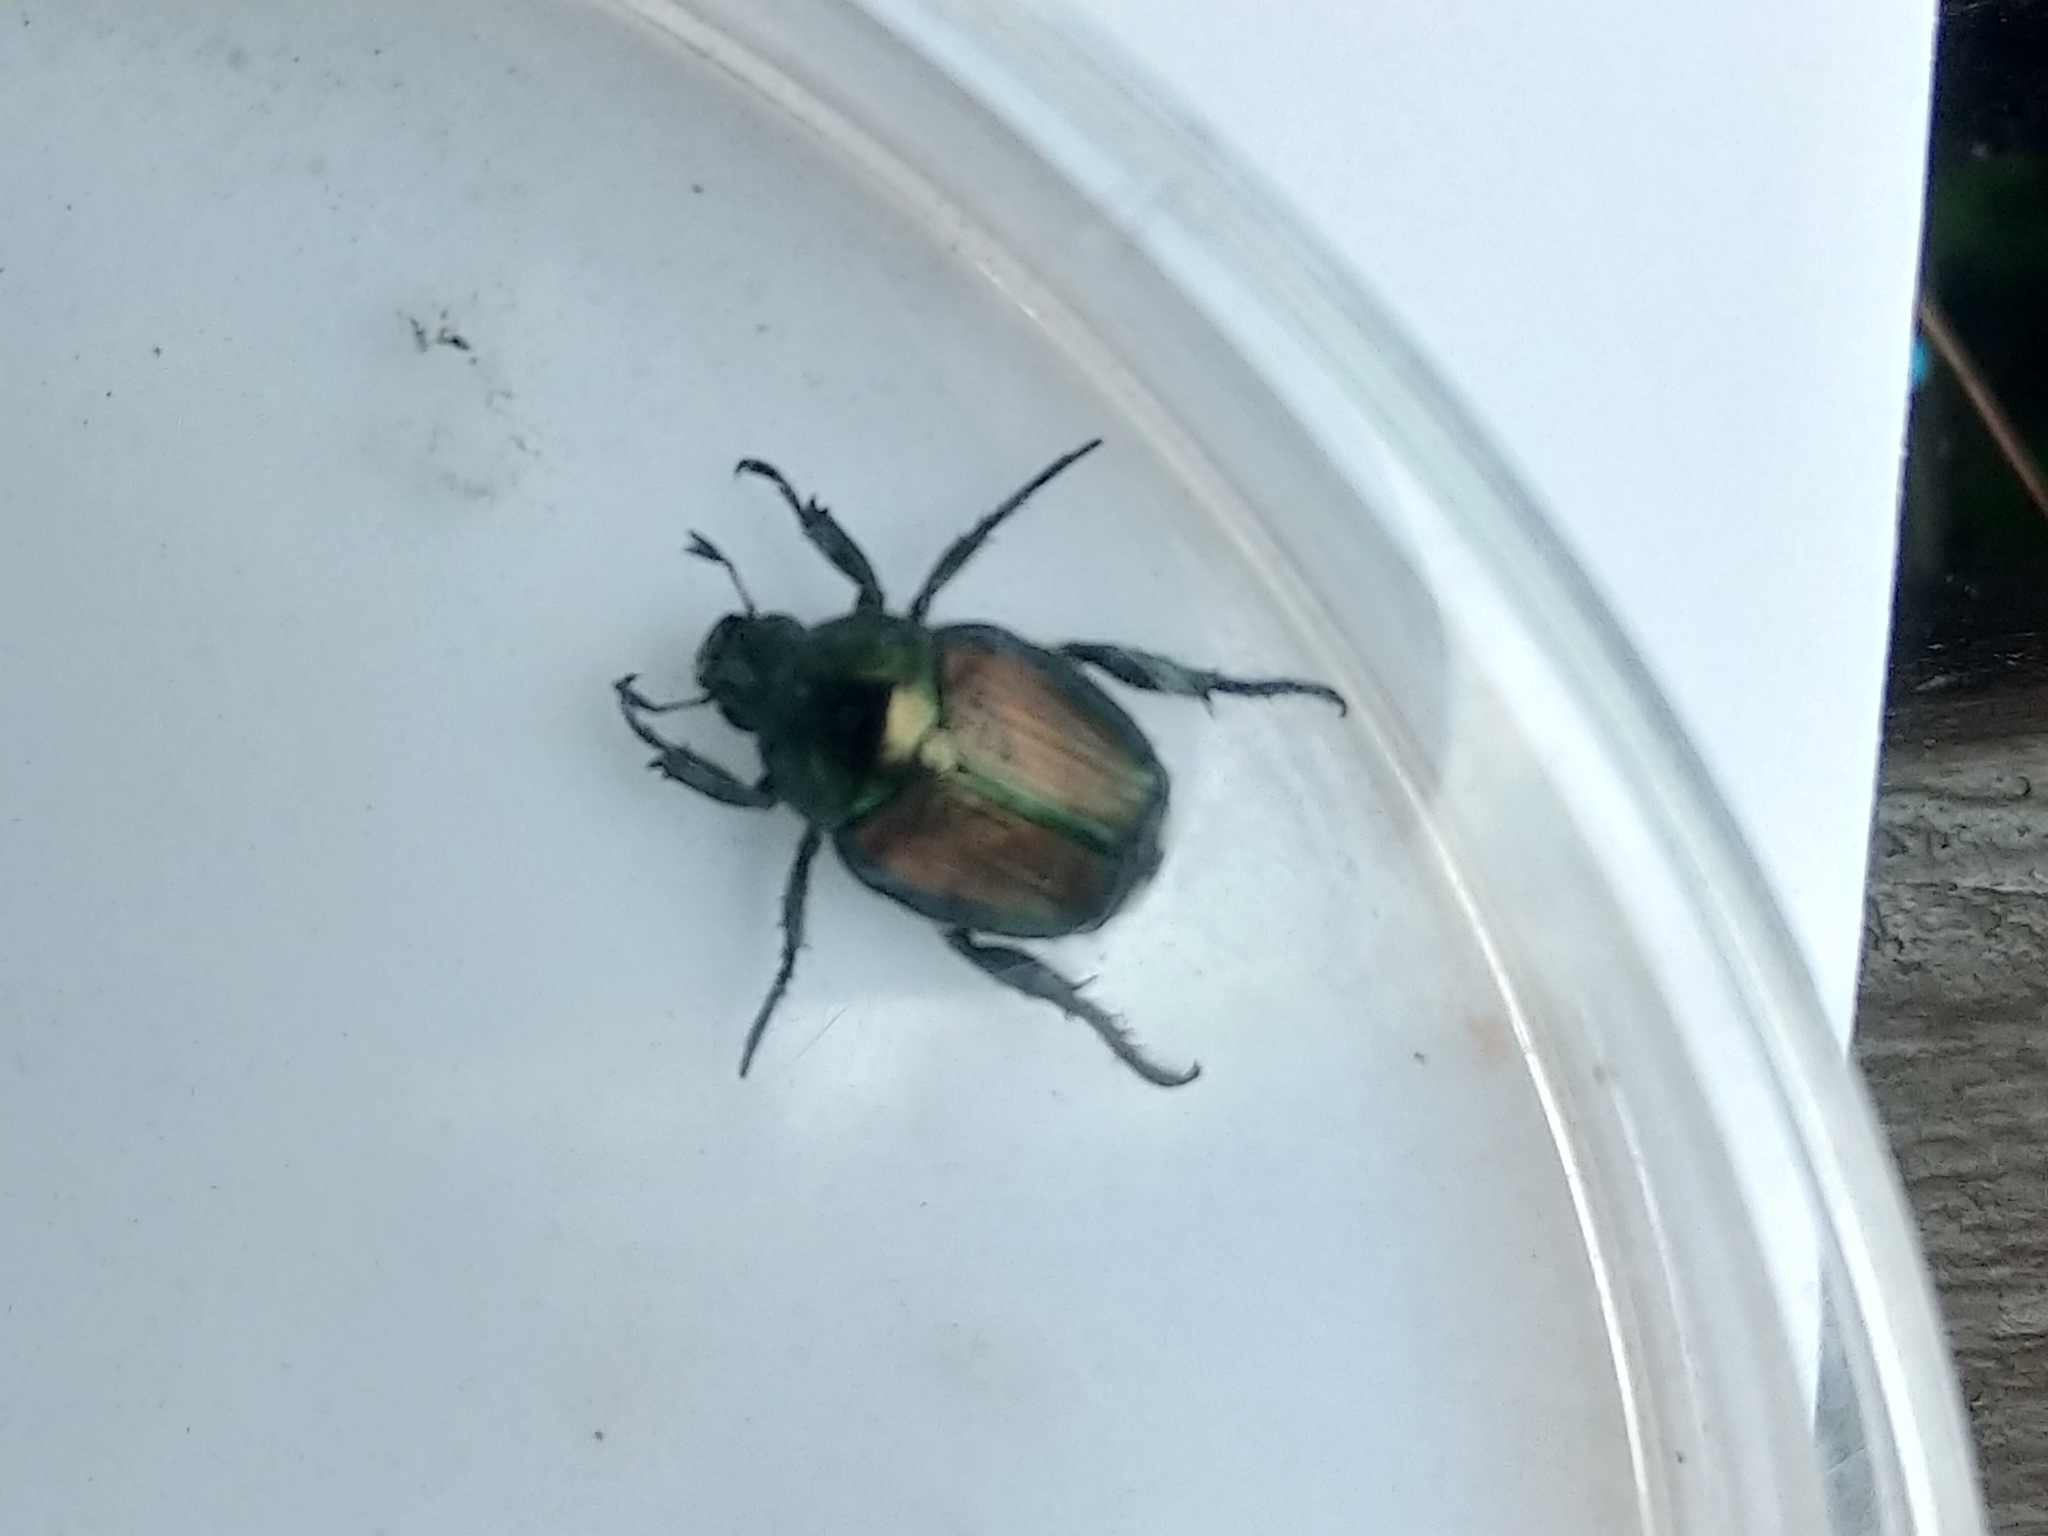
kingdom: Animalia
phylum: Arthropoda
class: Insecta
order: Coleoptera
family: Scarabaeidae
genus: Popillia
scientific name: Popillia japonica
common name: Japanese beetle
